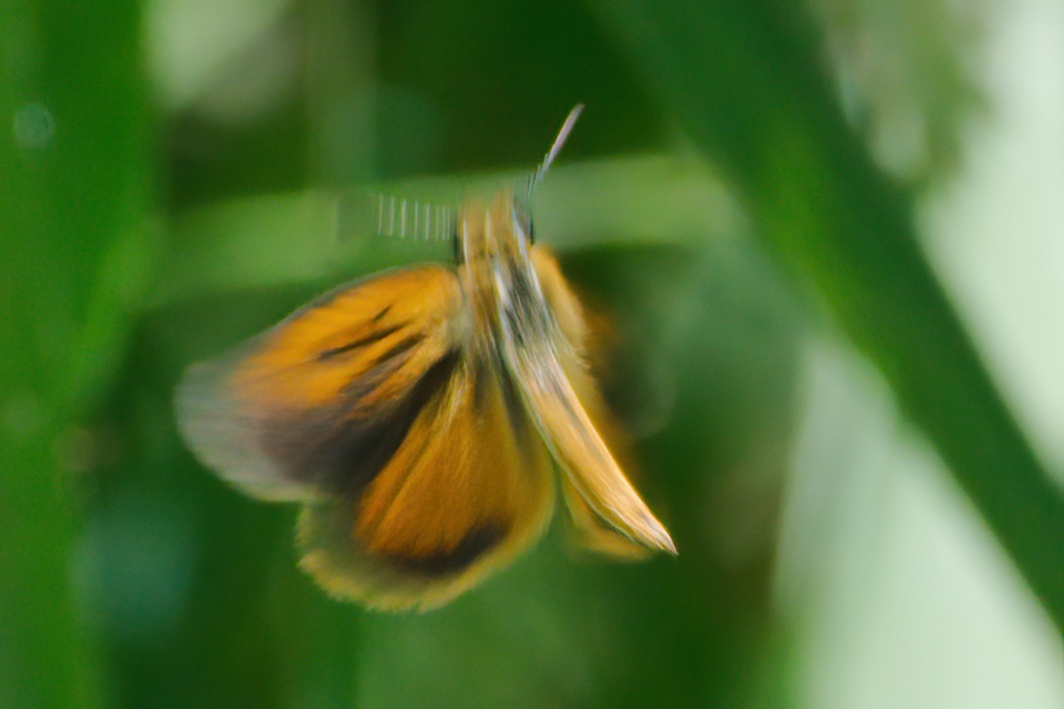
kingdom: Animalia
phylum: Arthropoda
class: Insecta
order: Lepidoptera
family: Hesperiidae
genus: Ancyloxypha
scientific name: Ancyloxypha numitor
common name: Least skipper
